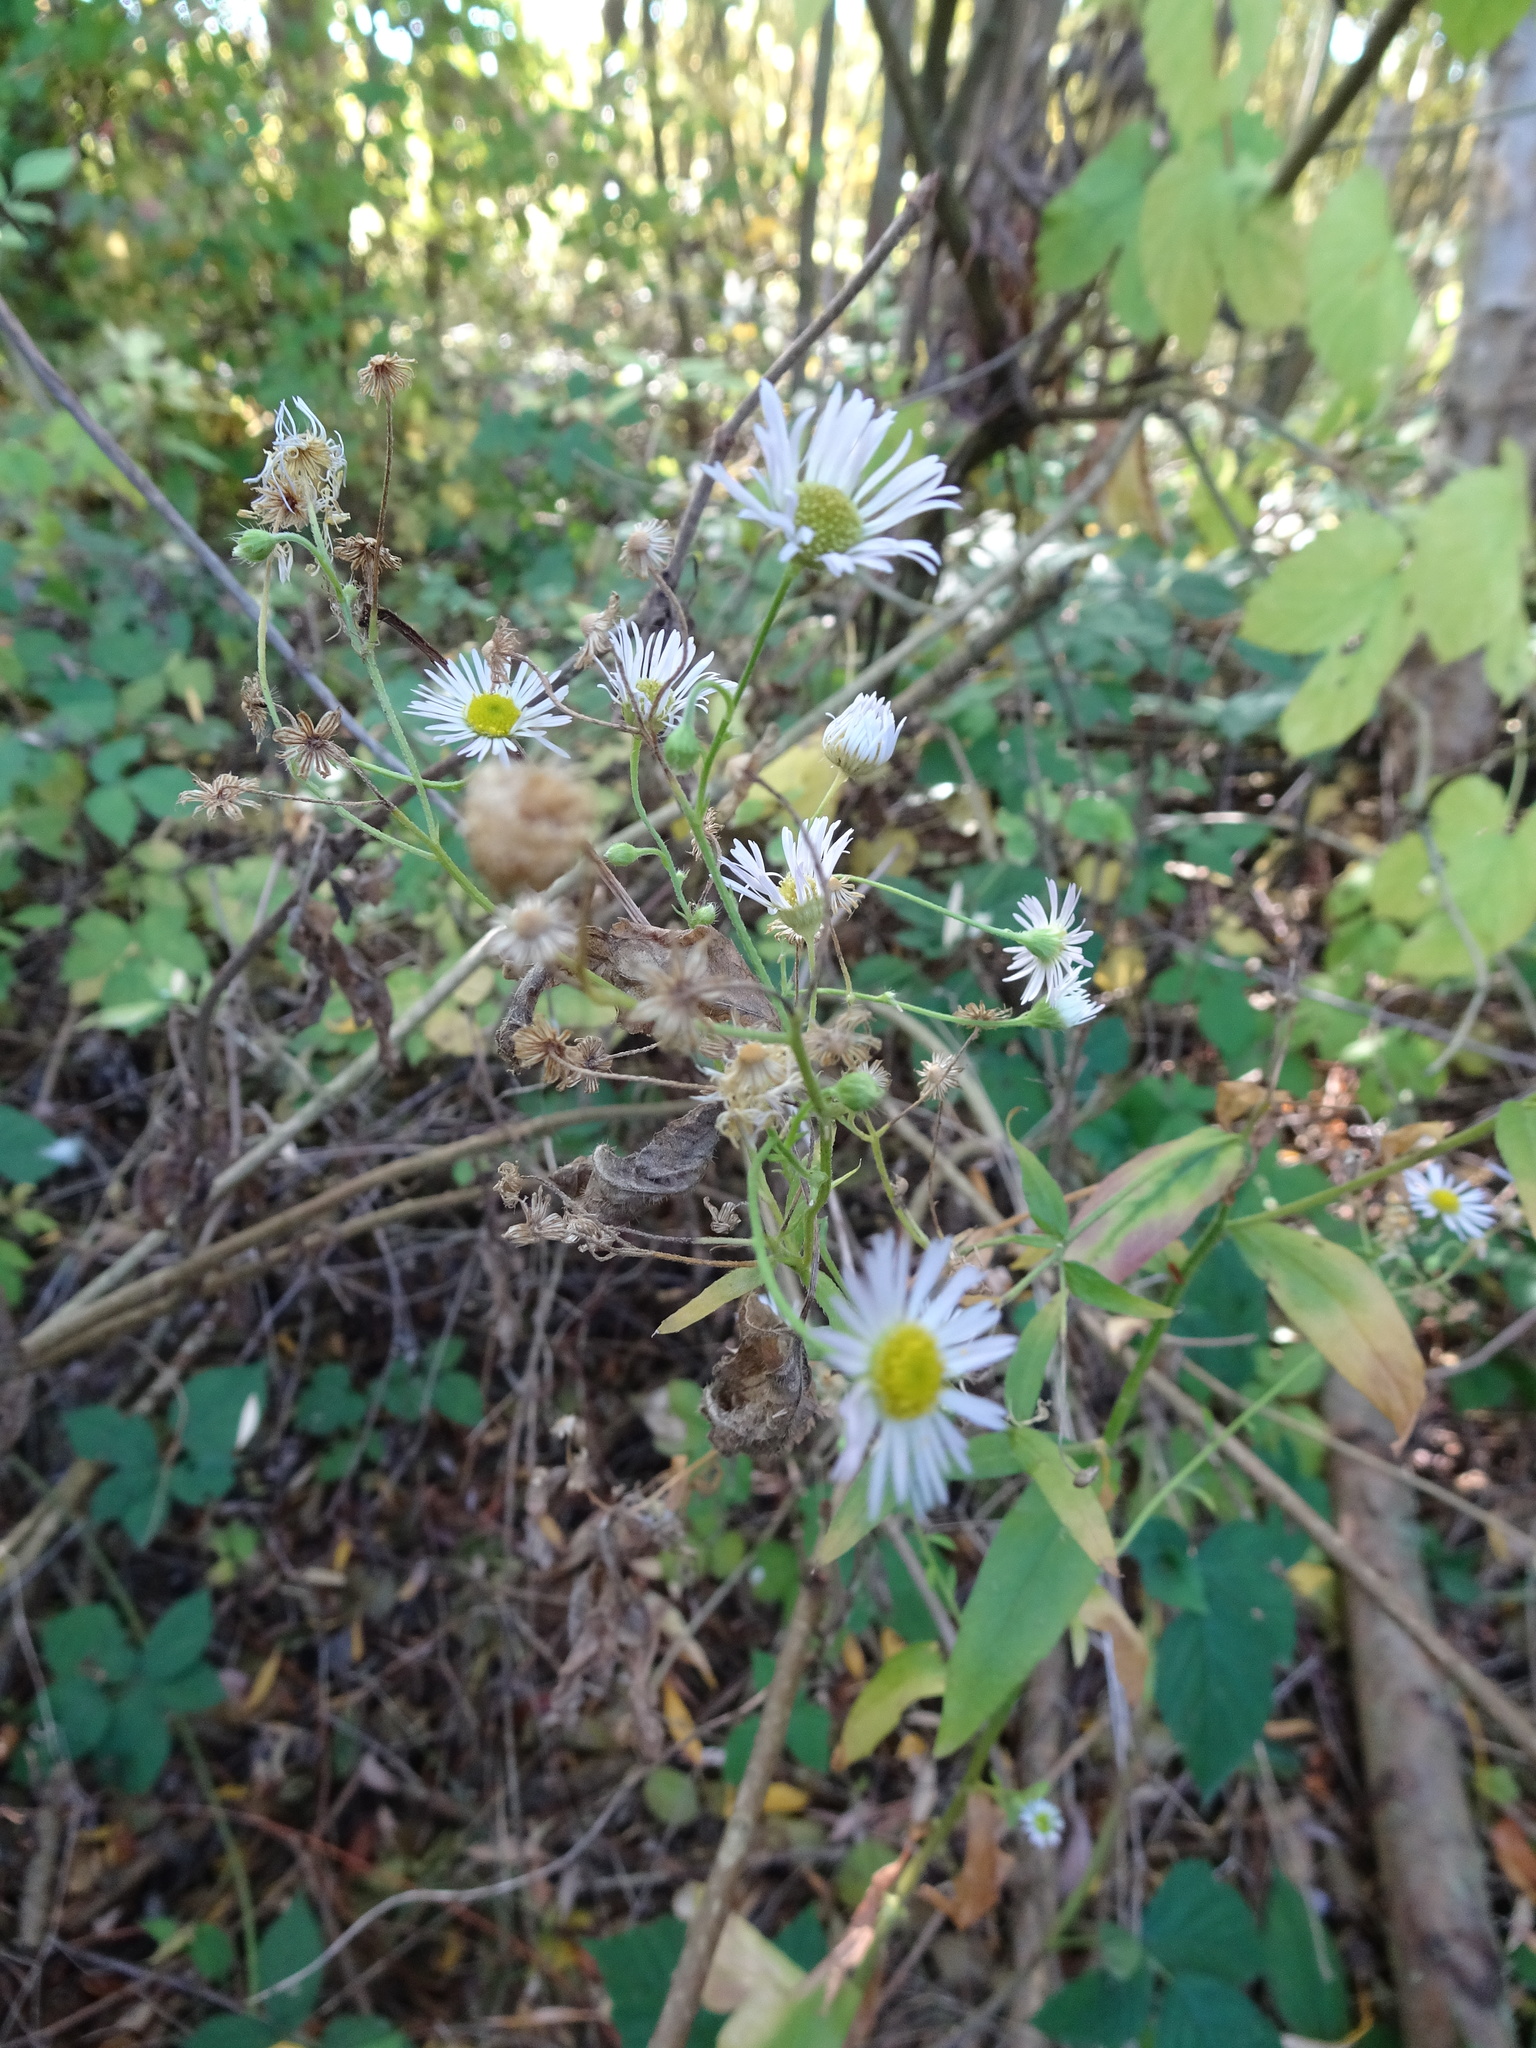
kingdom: Plantae
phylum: Tracheophyta
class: Magnoliopsida
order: Asterales
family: Asteraceae
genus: Erigeron
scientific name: Erigeron annuus
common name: Tall fleabane
